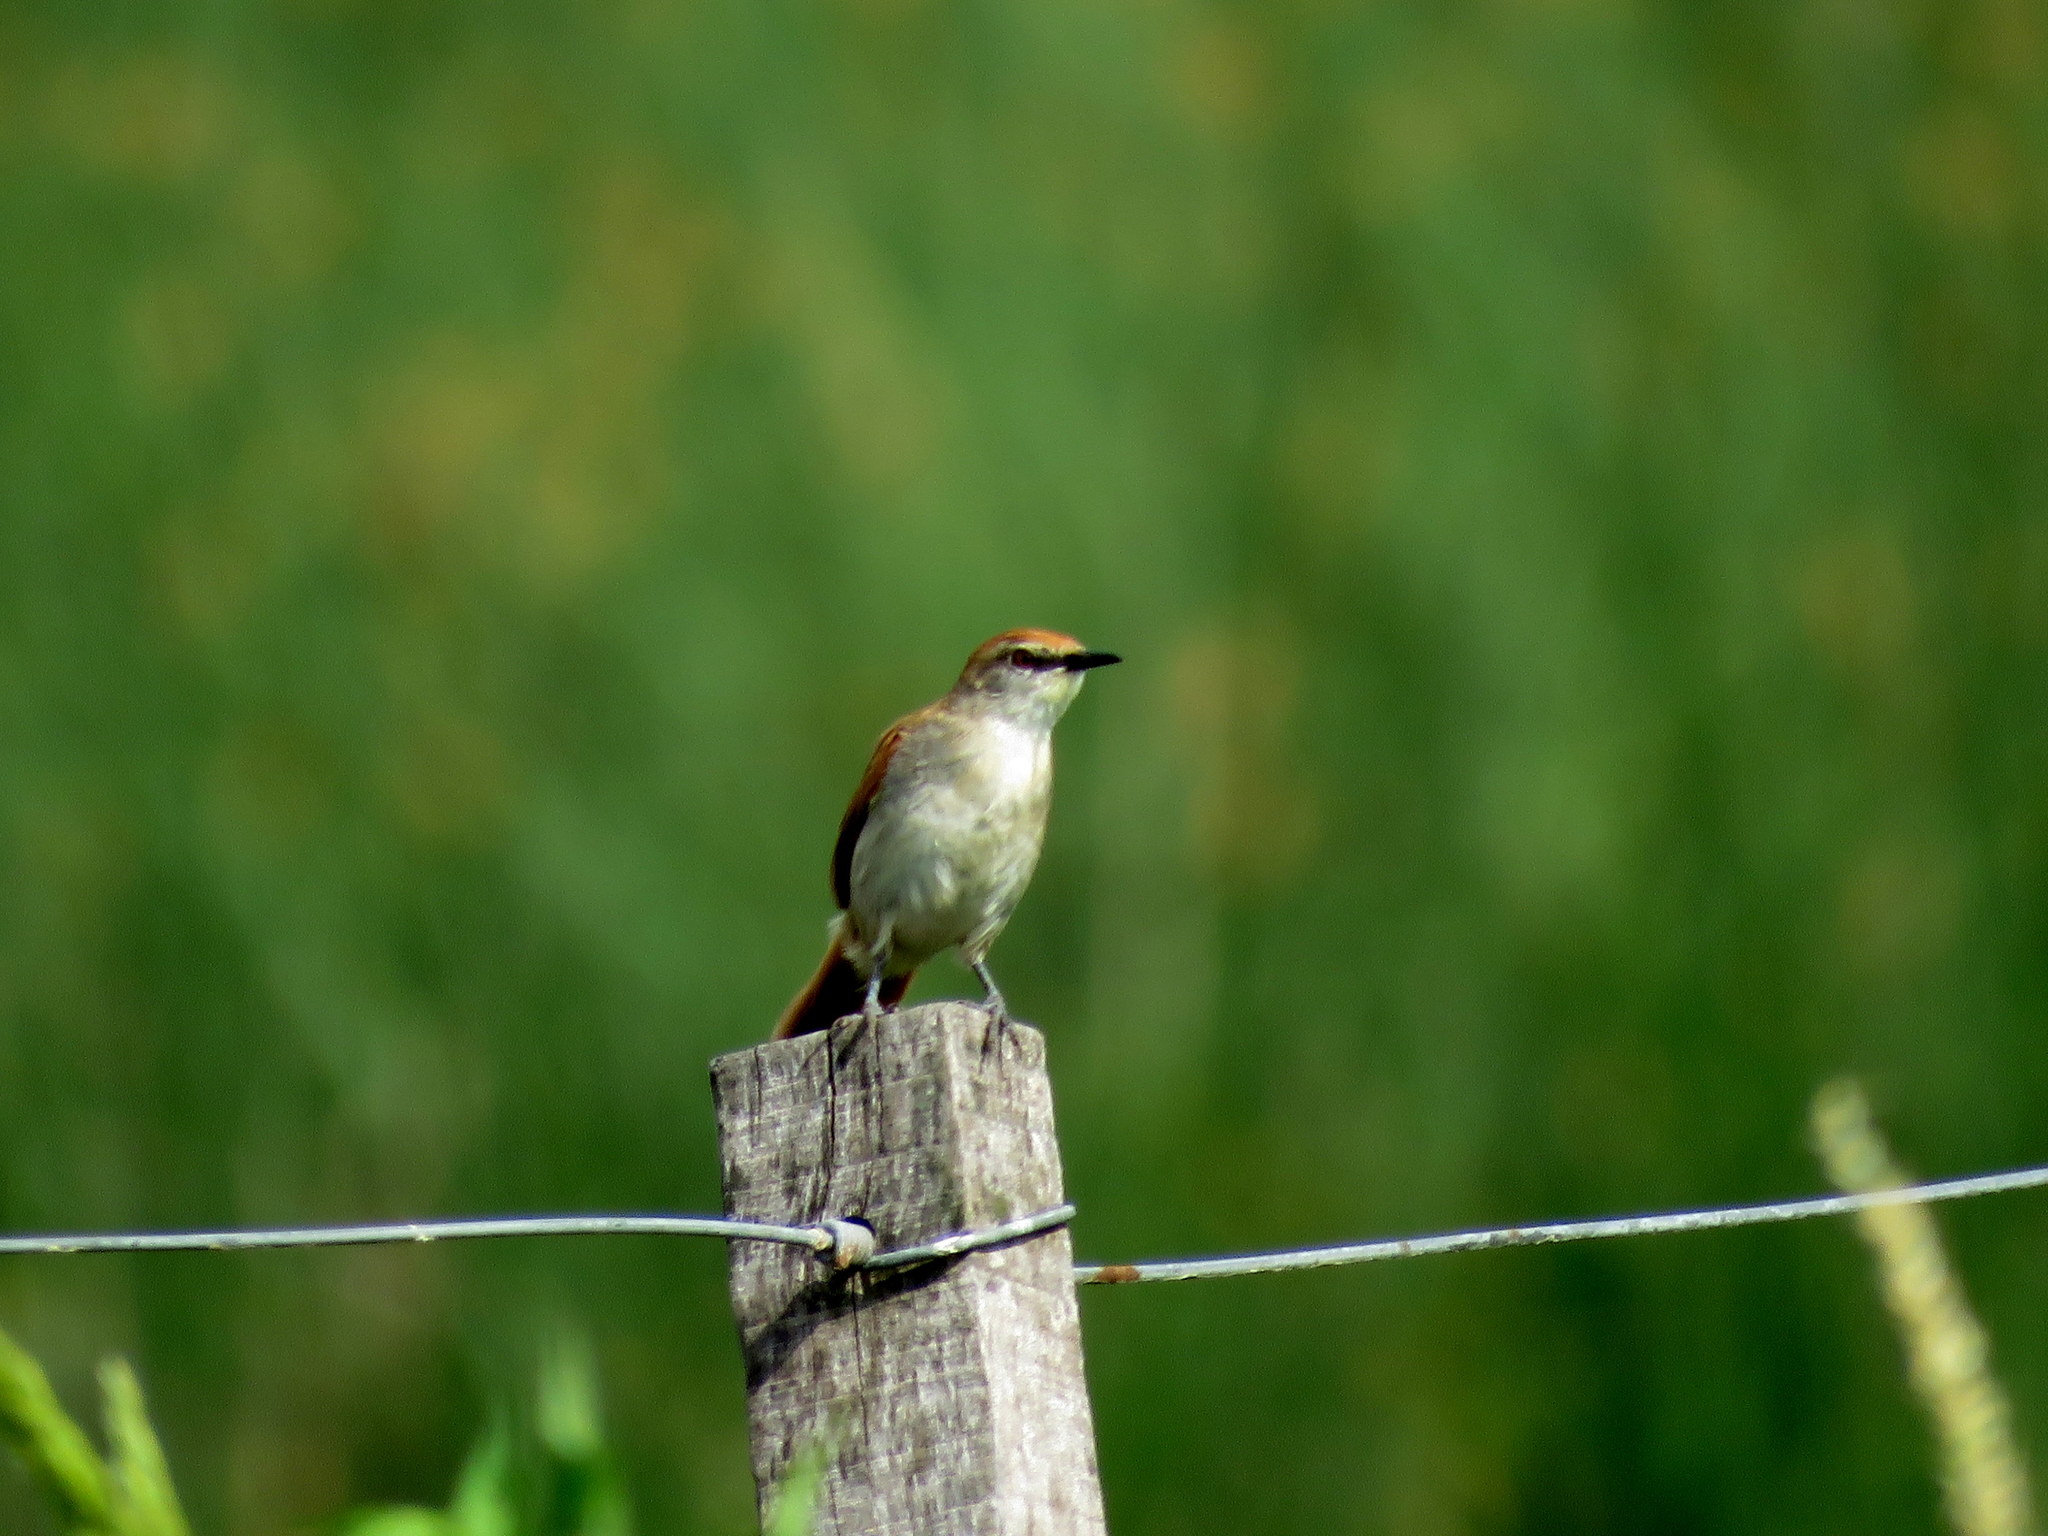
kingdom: Animalia
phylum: Chordata
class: Aves
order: Passeriformes
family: Furnariidae
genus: Certhiaxis
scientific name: Certhiaxis cinnamomeus
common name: Yellow-chinned spinetail
